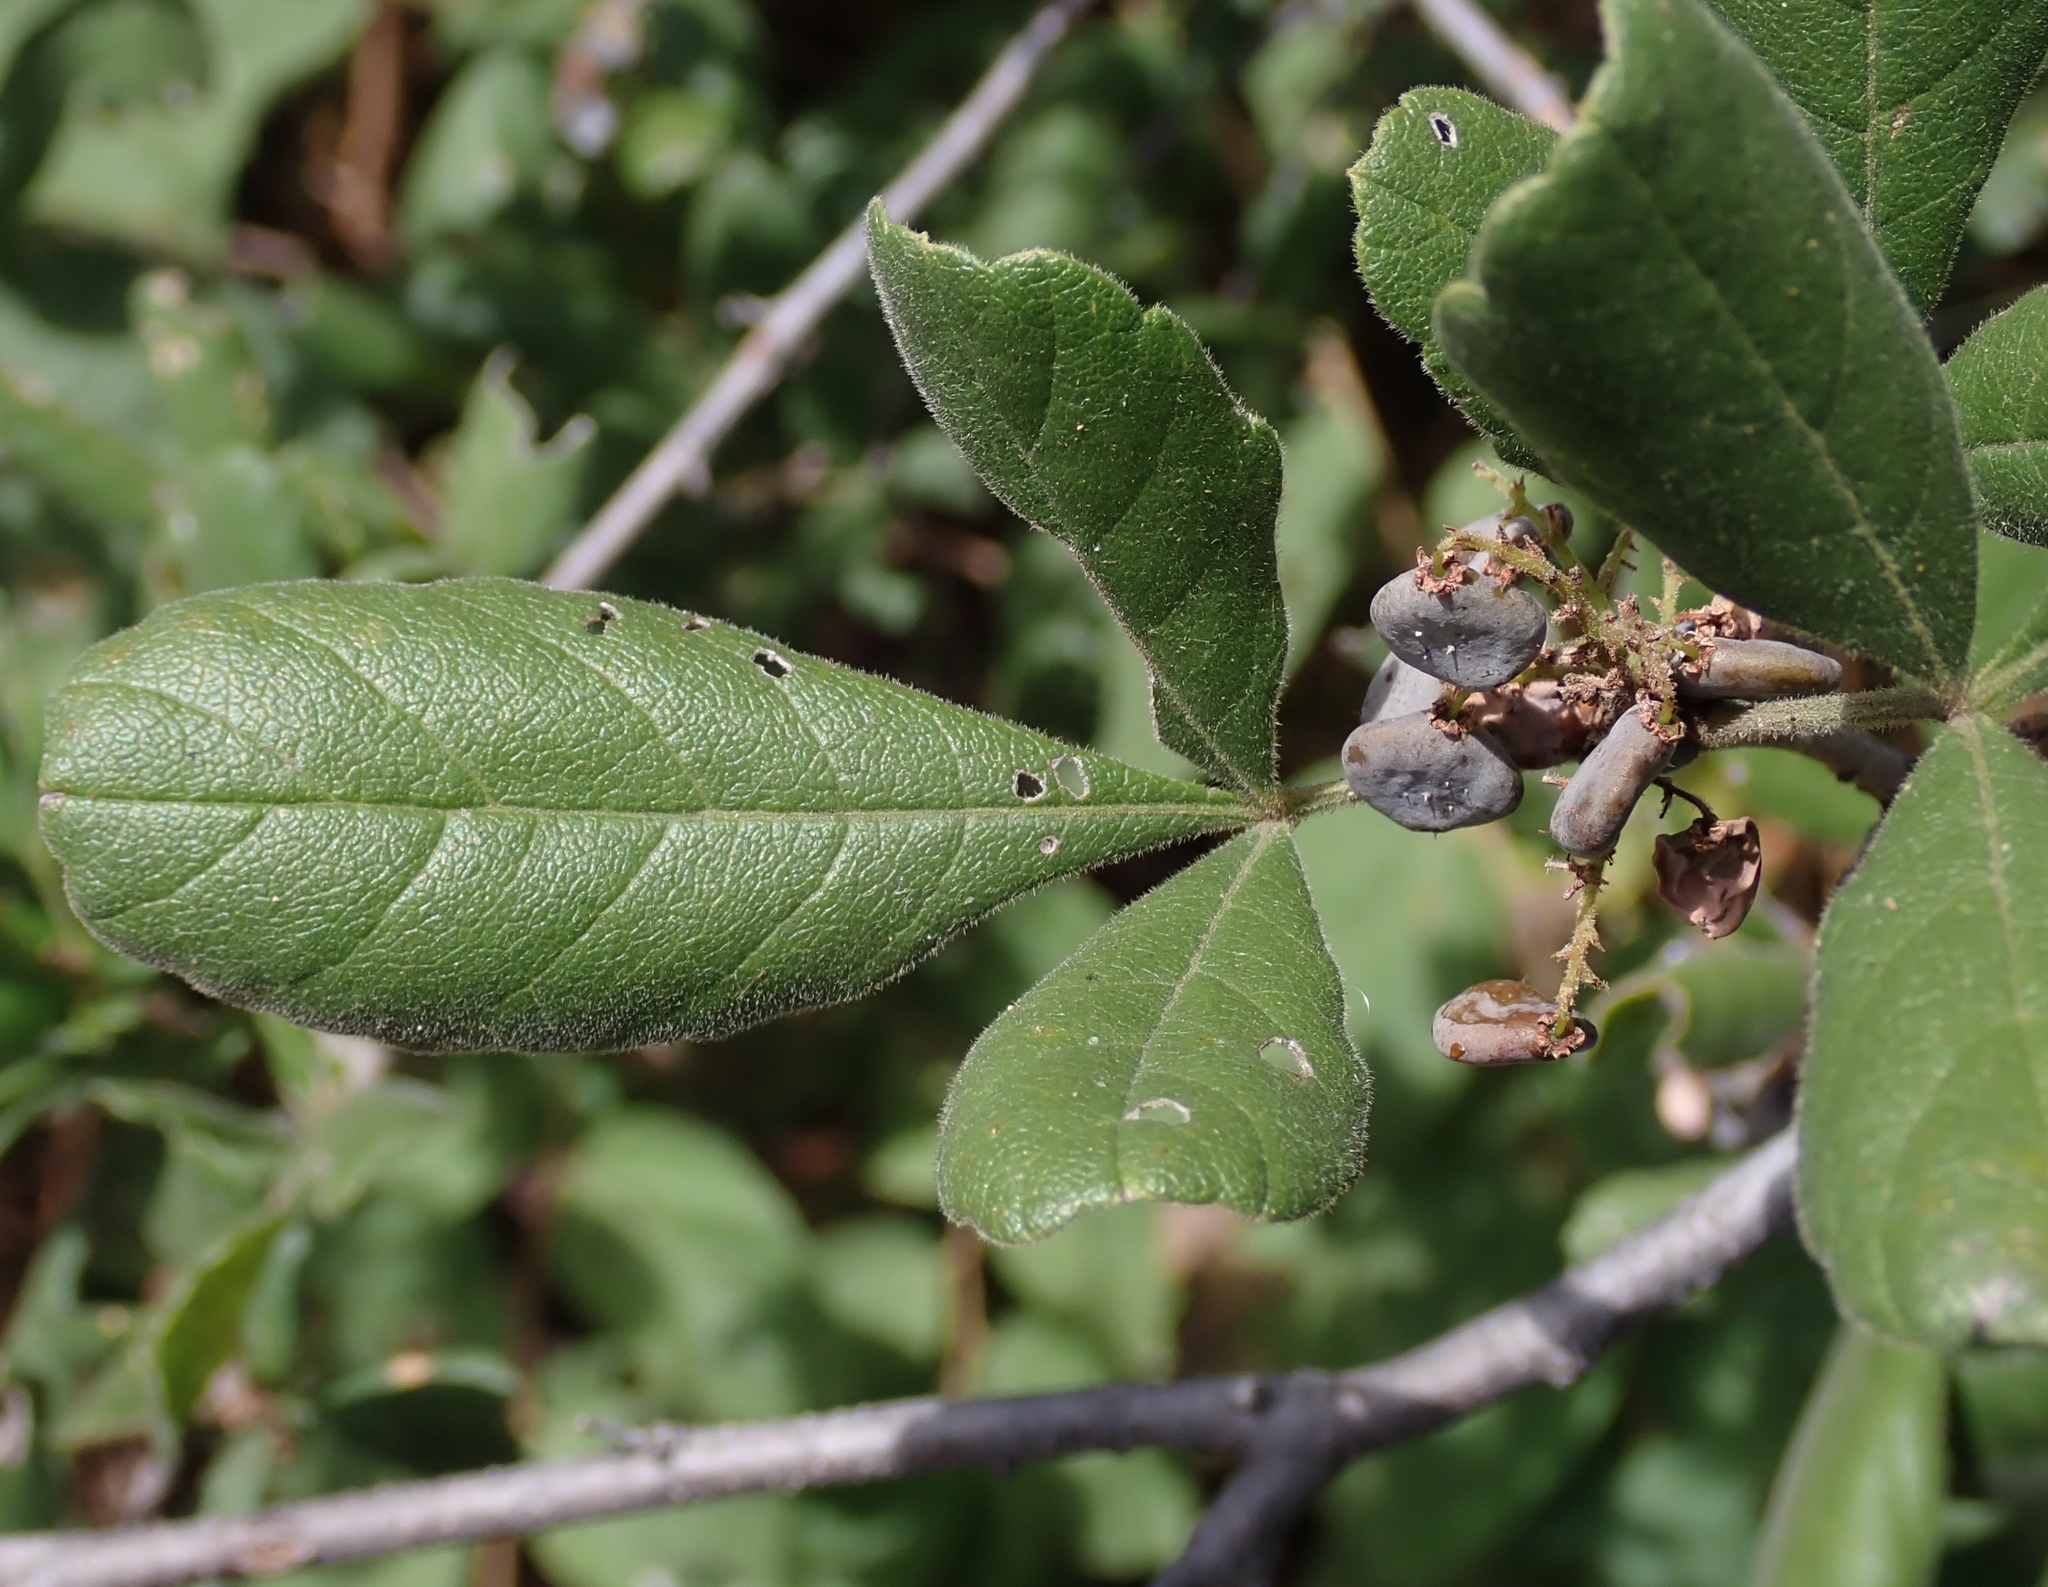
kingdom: Plantae
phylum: Tracheophyta
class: Magnoliopsida
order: Sapindales
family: Anacardiaceae
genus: Searsia
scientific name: Searsia tenuinervis
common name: Hyaena taaibos
